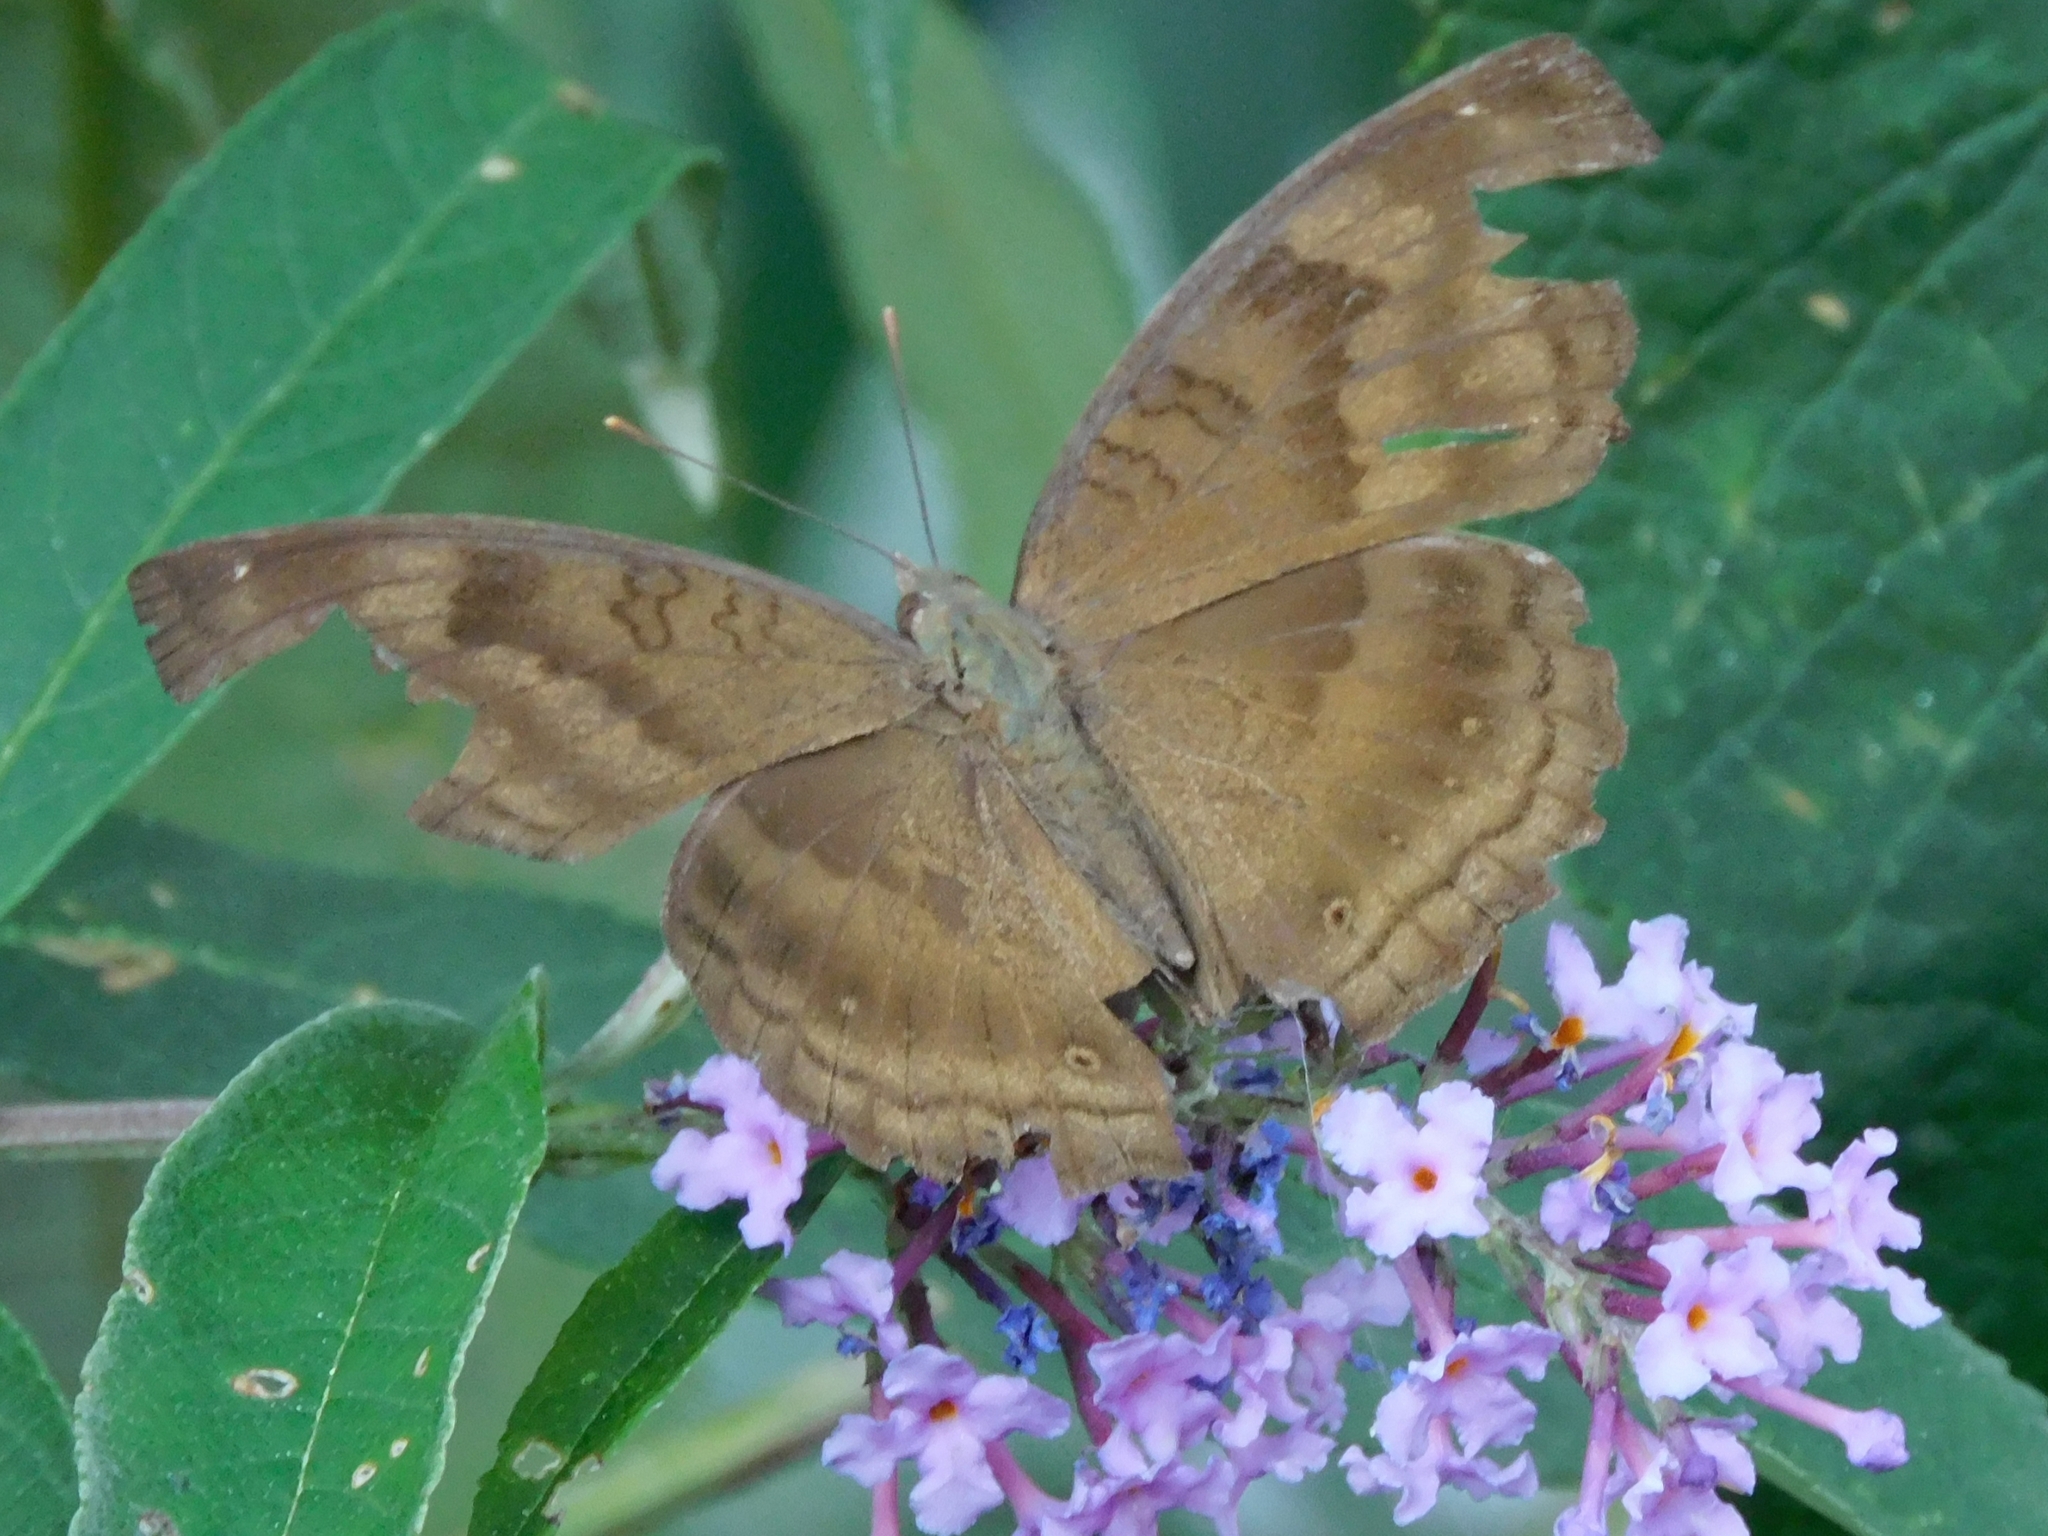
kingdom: Animalia
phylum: Arthropoda
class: Insecta
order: Lepidoptera
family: Nymphalidae
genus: Junonia
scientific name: Junonia iphita
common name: Chocolate pansy
